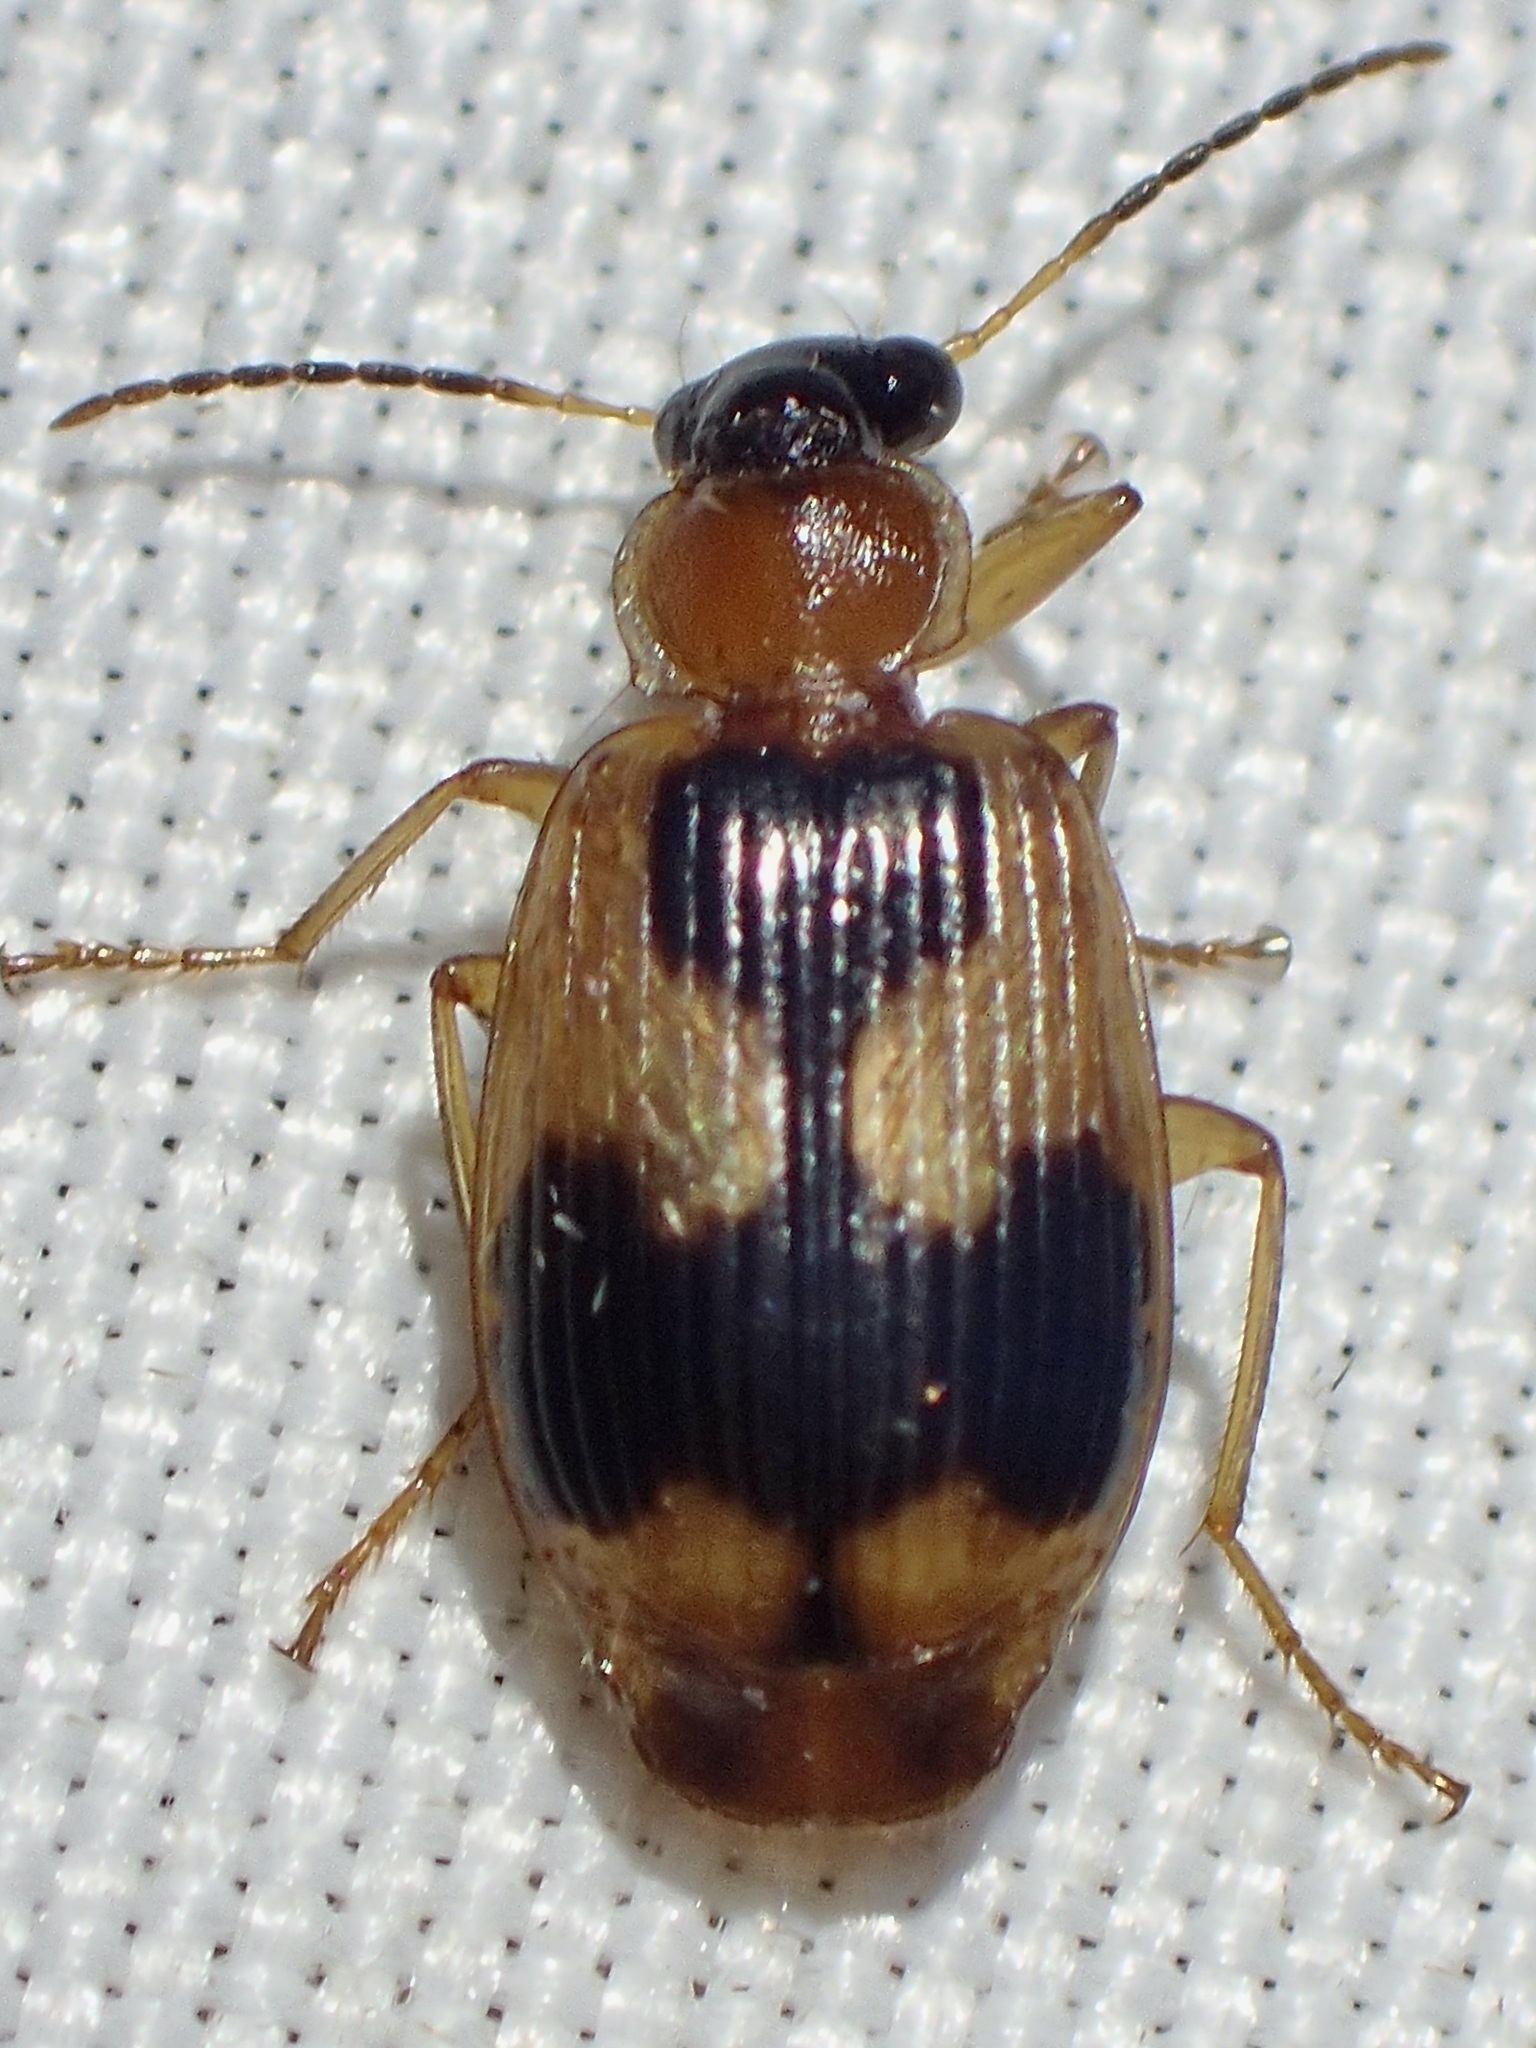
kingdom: Animalia
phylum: Arthropoda
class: Insecta
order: Coleoptera
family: Carabidae
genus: Lebia
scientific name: Lebia analis
